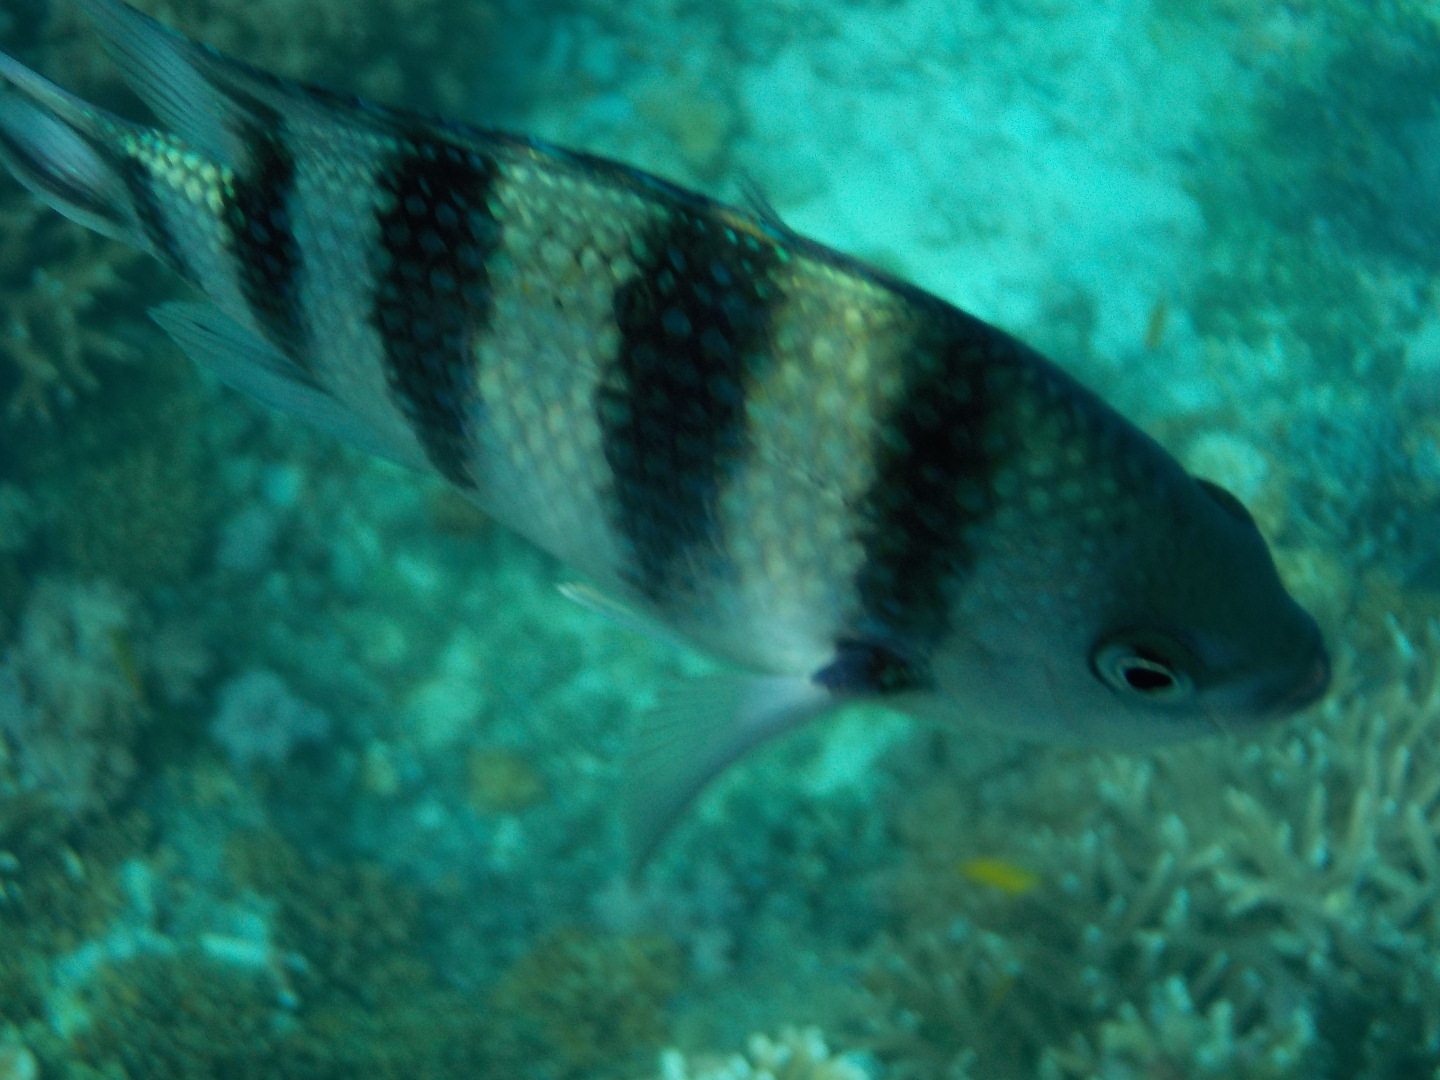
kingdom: Animalia
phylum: Chordata
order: Perciformes
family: Pomacentridae
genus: Abudefduf
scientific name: Abudefduf sexfasciatus
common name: Scissortail sergeant
